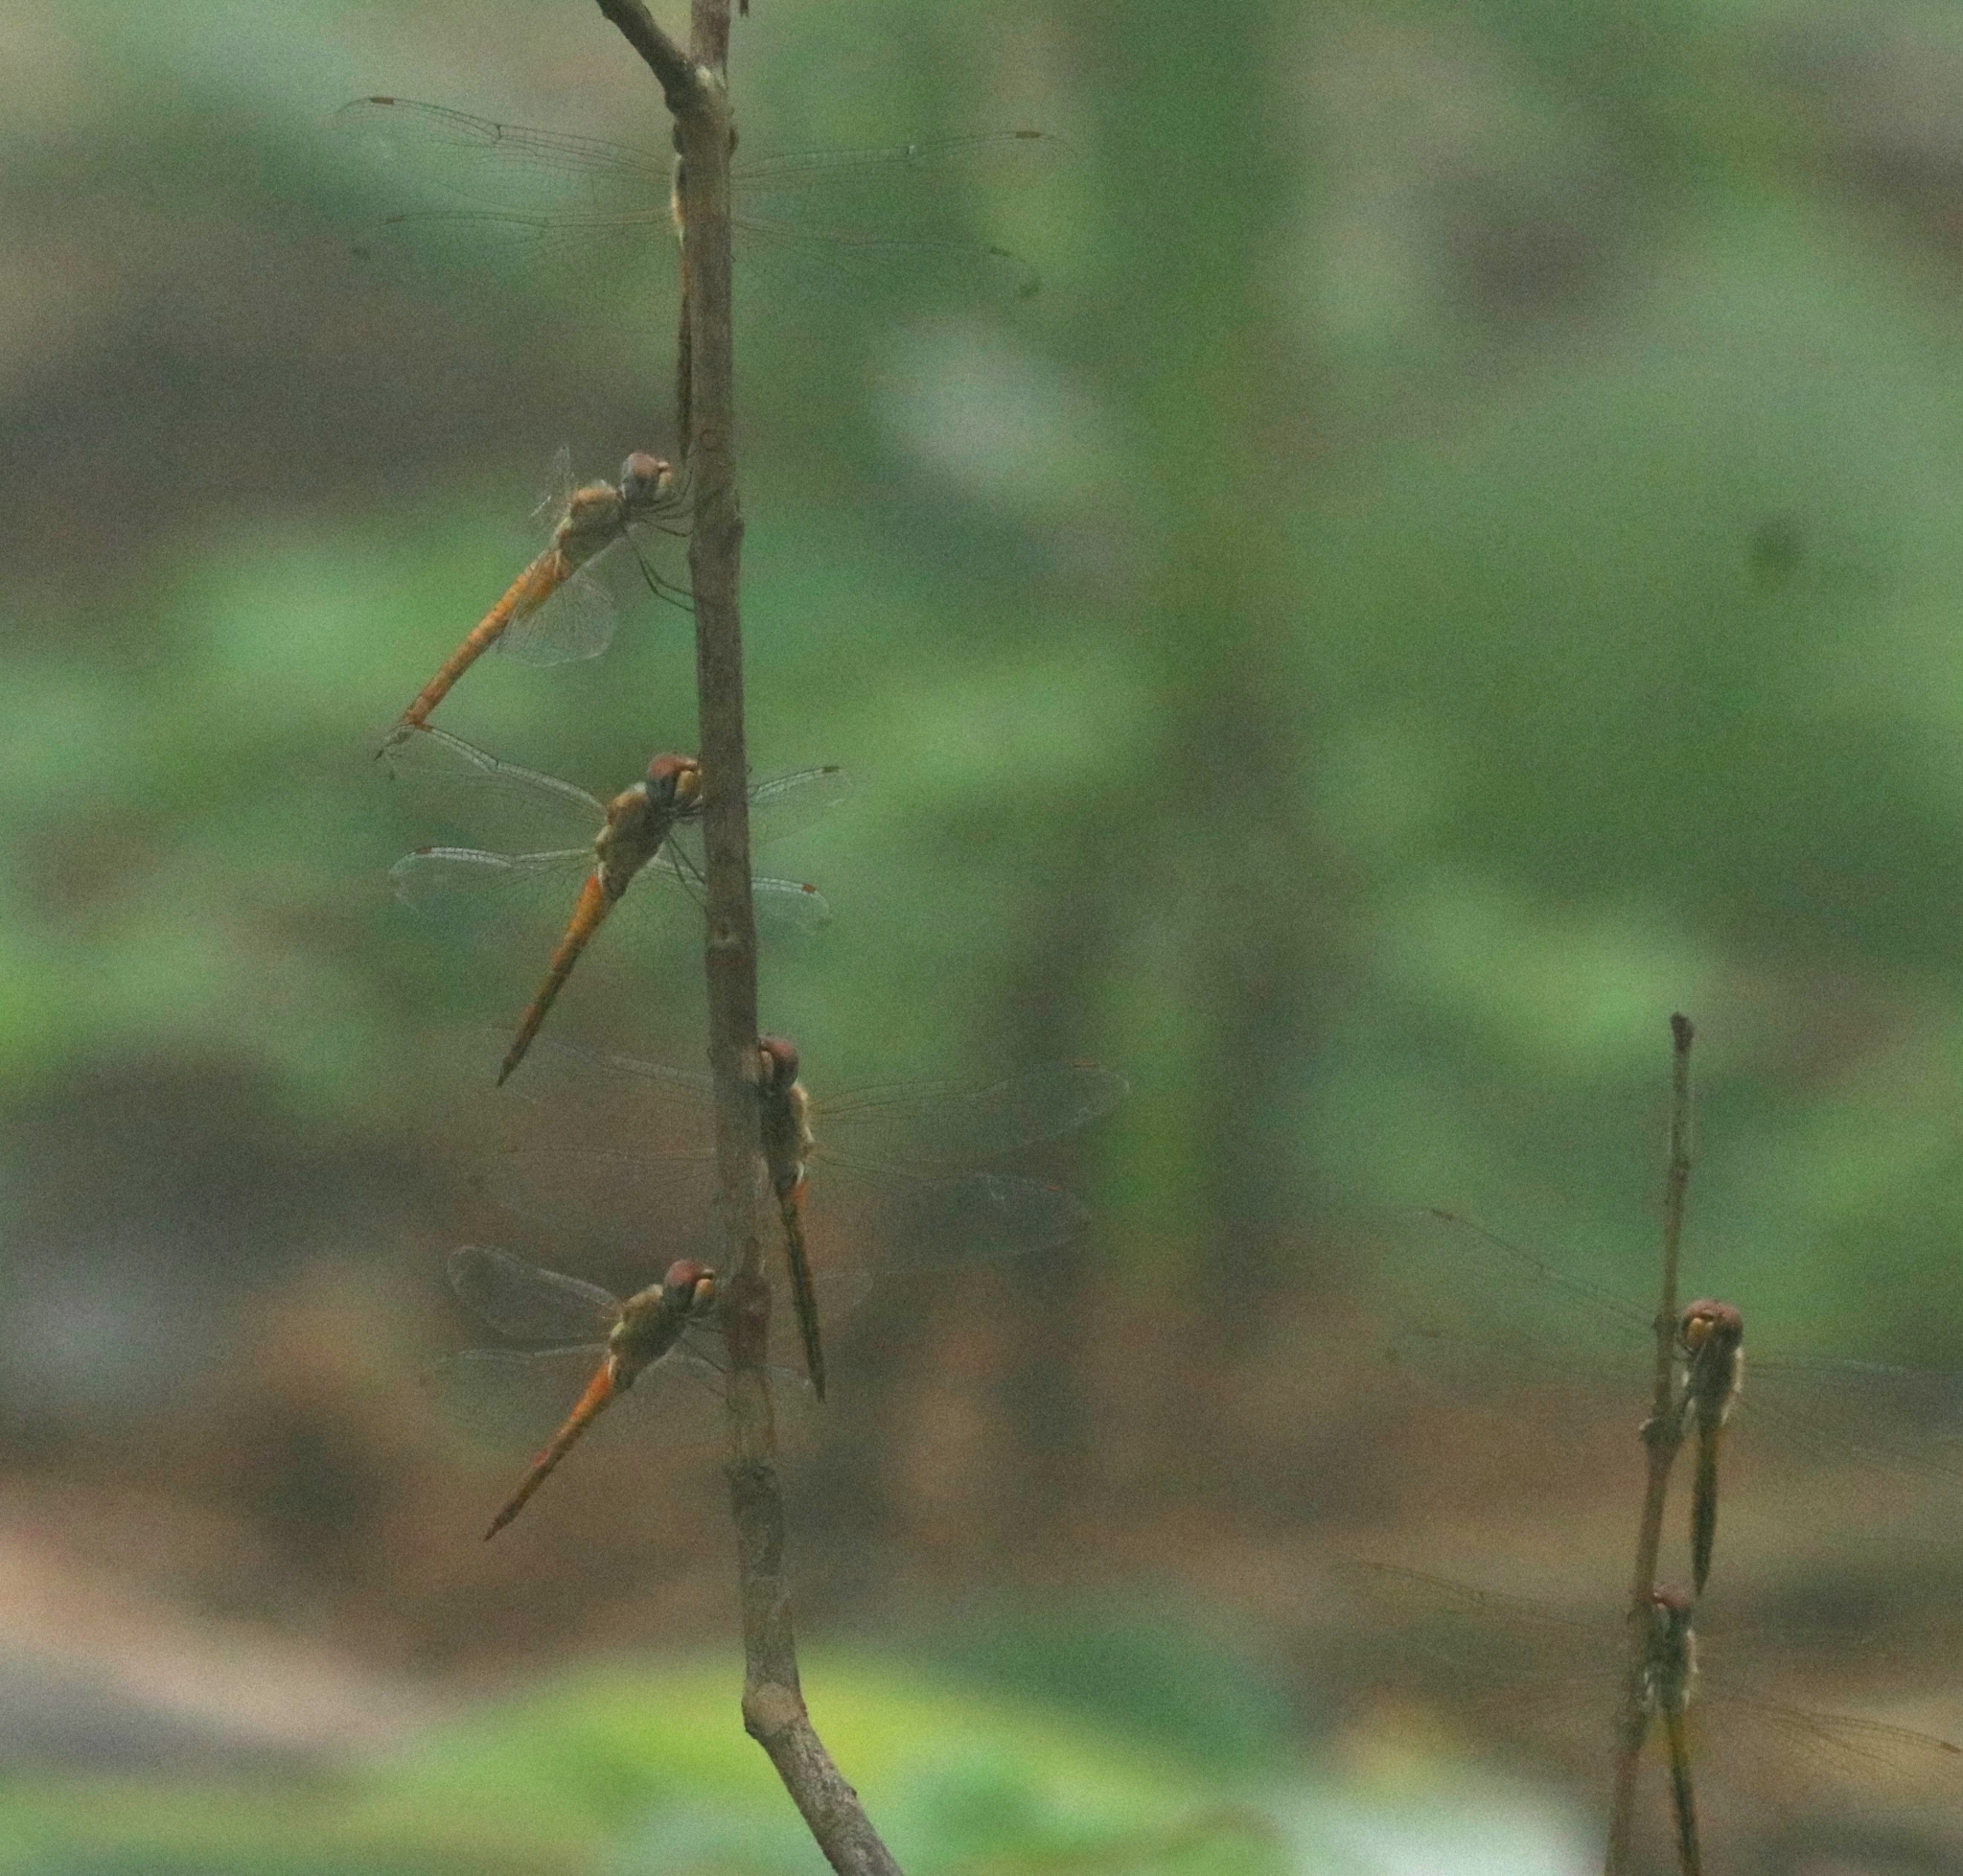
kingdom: Animalia
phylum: Arthropoda
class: Insecta
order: Odonata
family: Libellulidae
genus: Pantala
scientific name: Pantala flavescens
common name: Wandering glider
